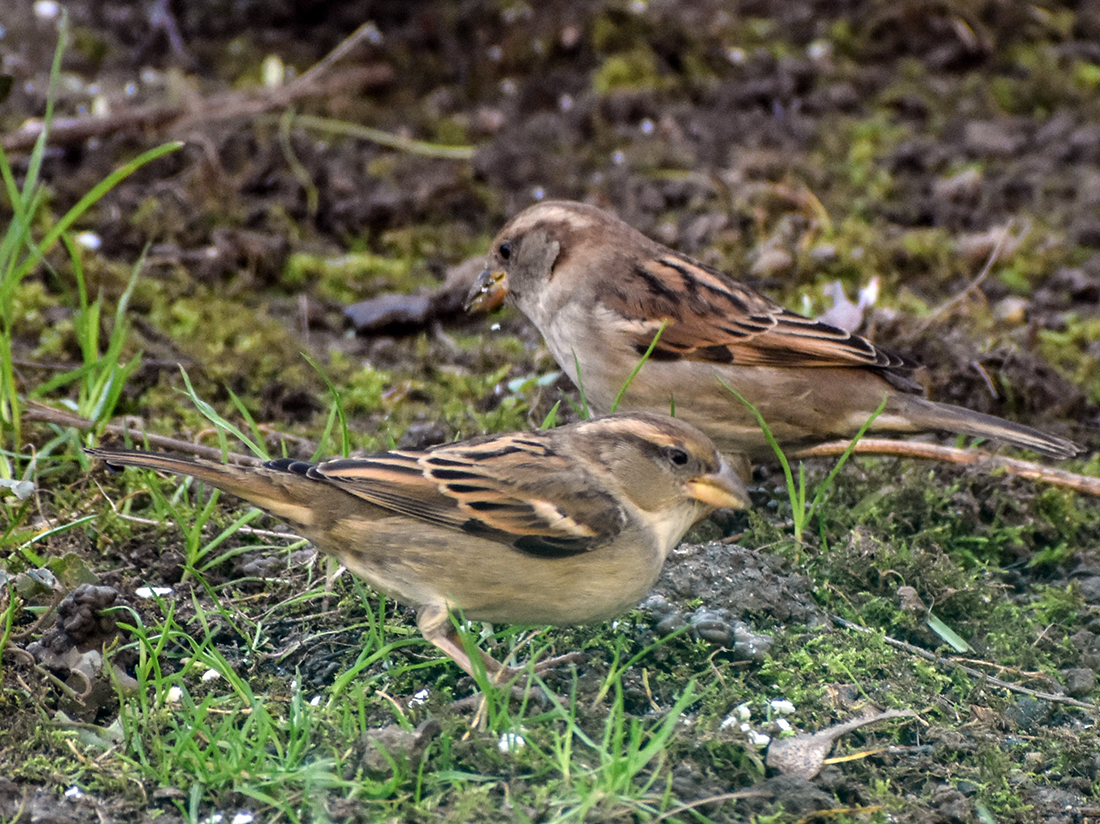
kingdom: Animalia
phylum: Chordata
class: Aves
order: Passeriformes
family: Passeridae
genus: Passer
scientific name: Passer italiae
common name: Italian sparrow
